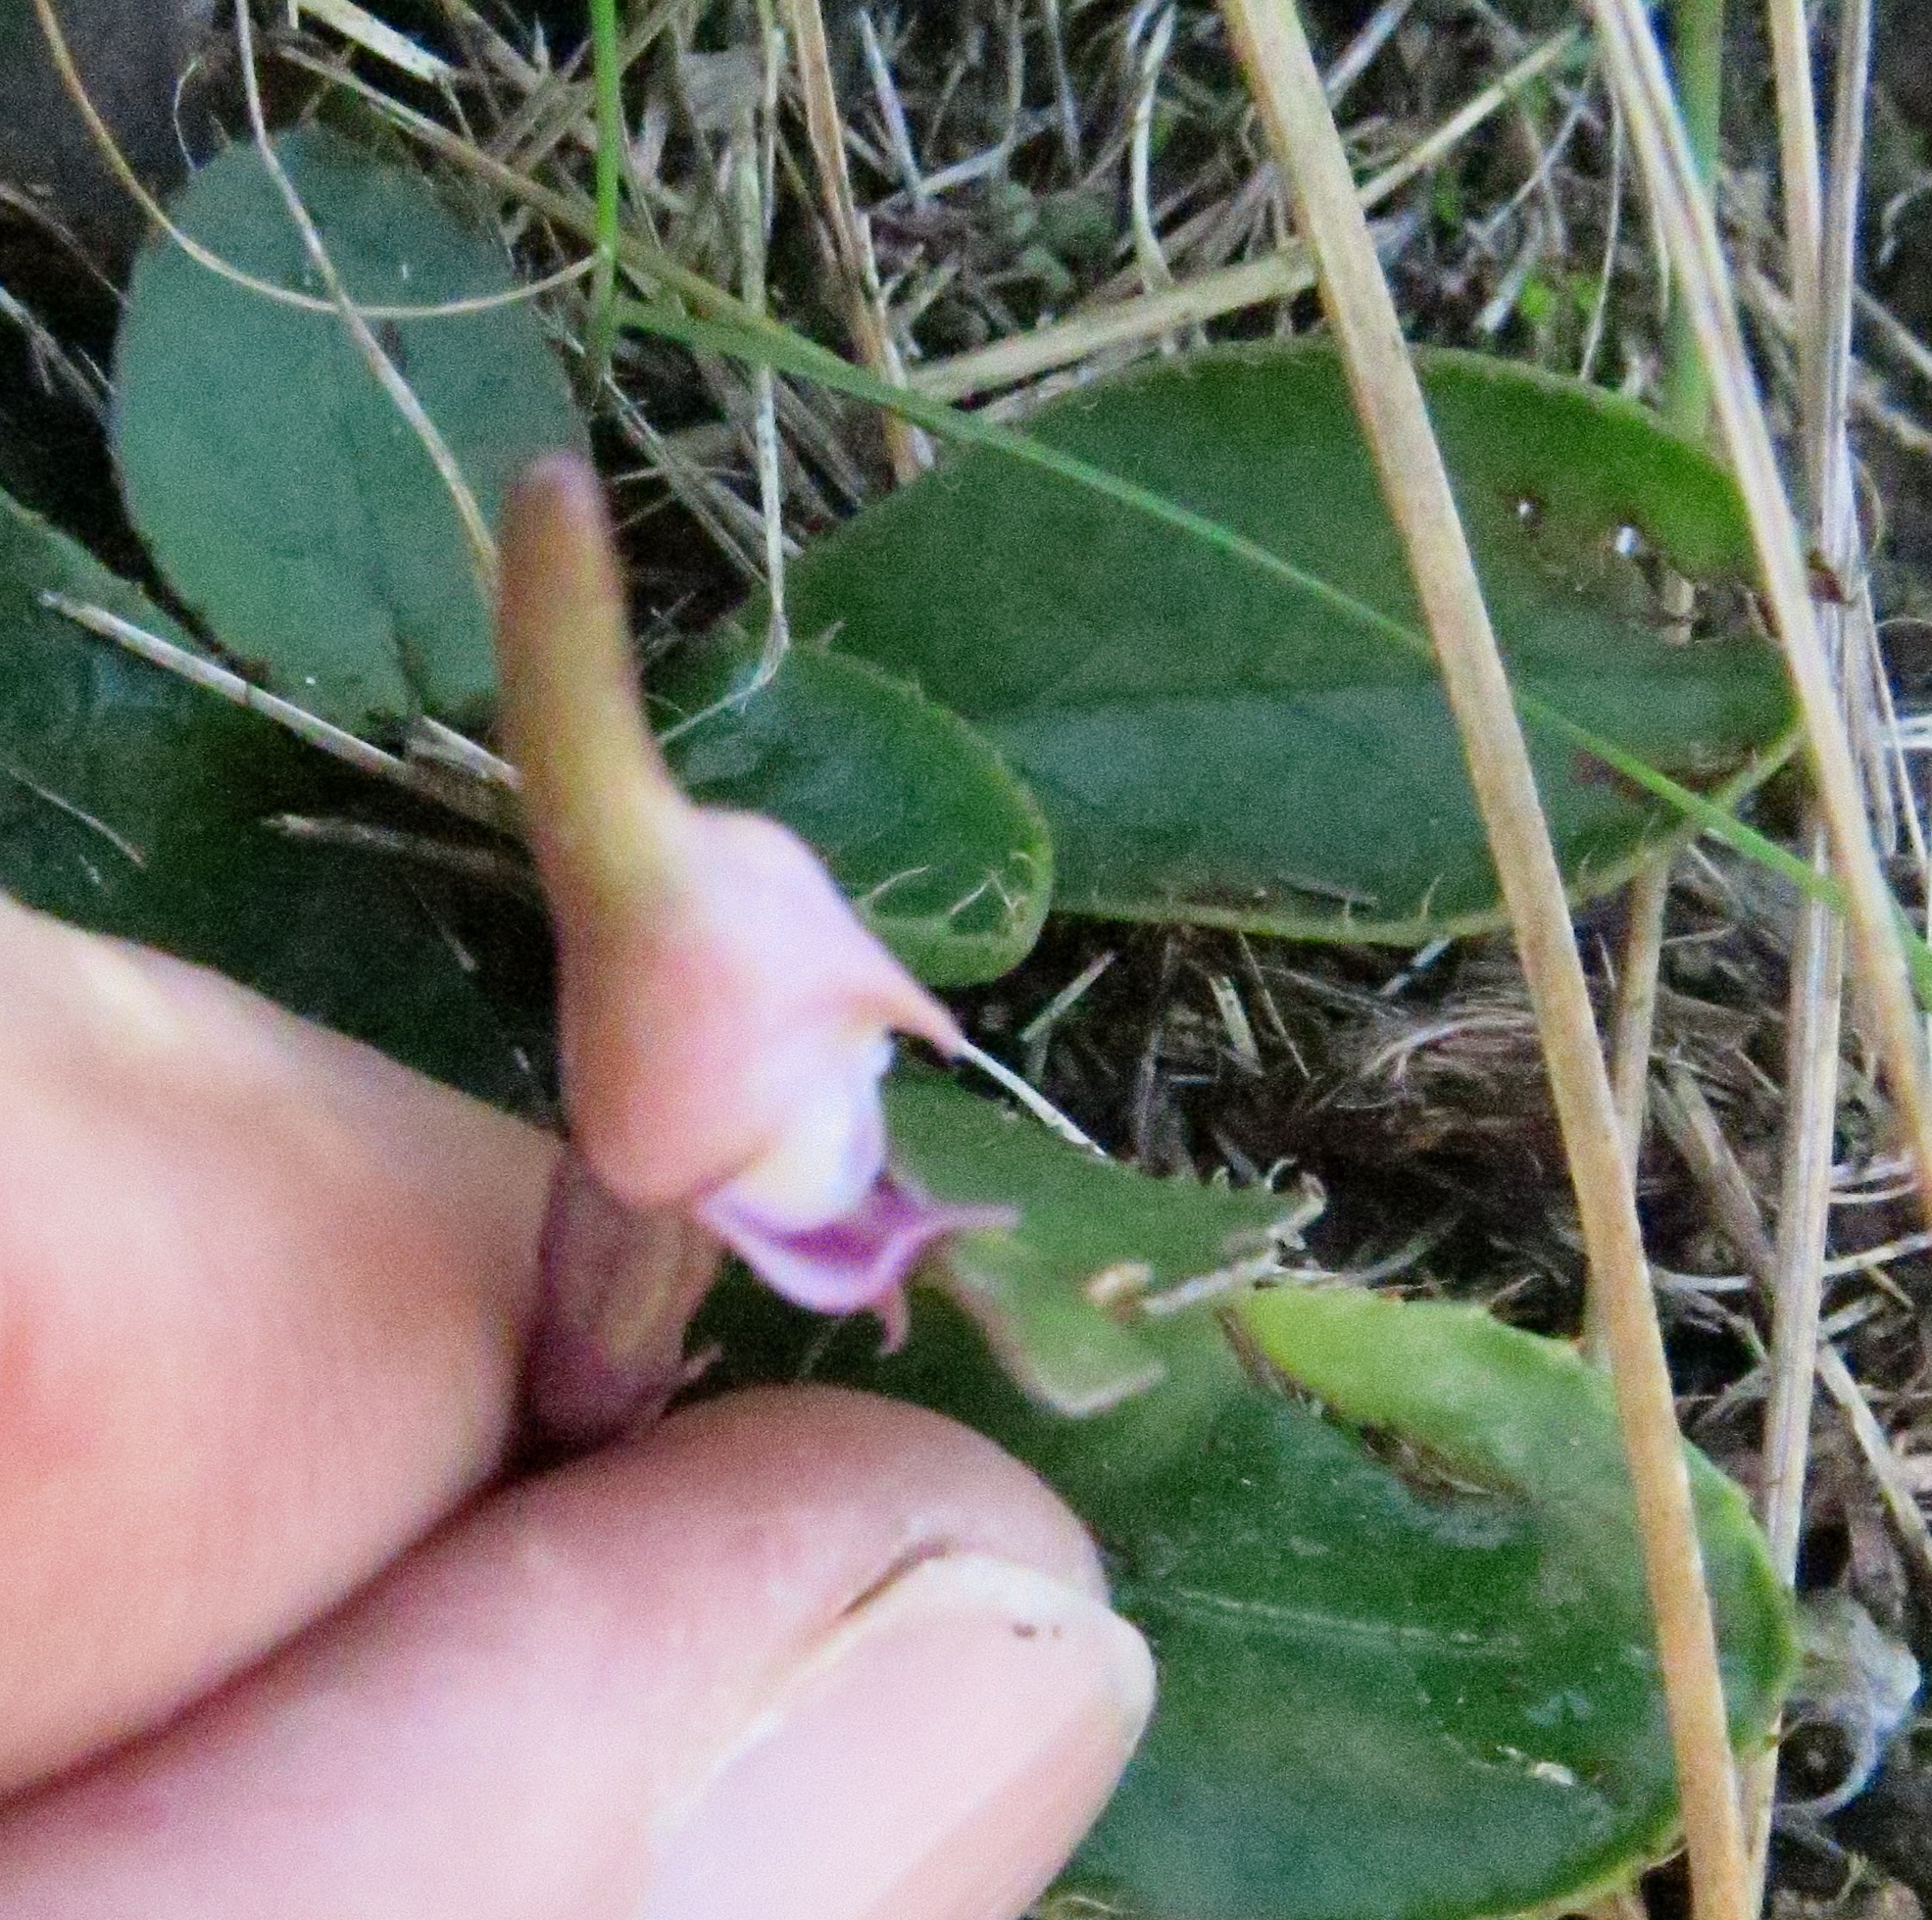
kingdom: Plantae
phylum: Tracheophyta
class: Liliopsida
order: Asparagales
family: Orchidaceae
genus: Disperis
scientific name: Disperis woodii
